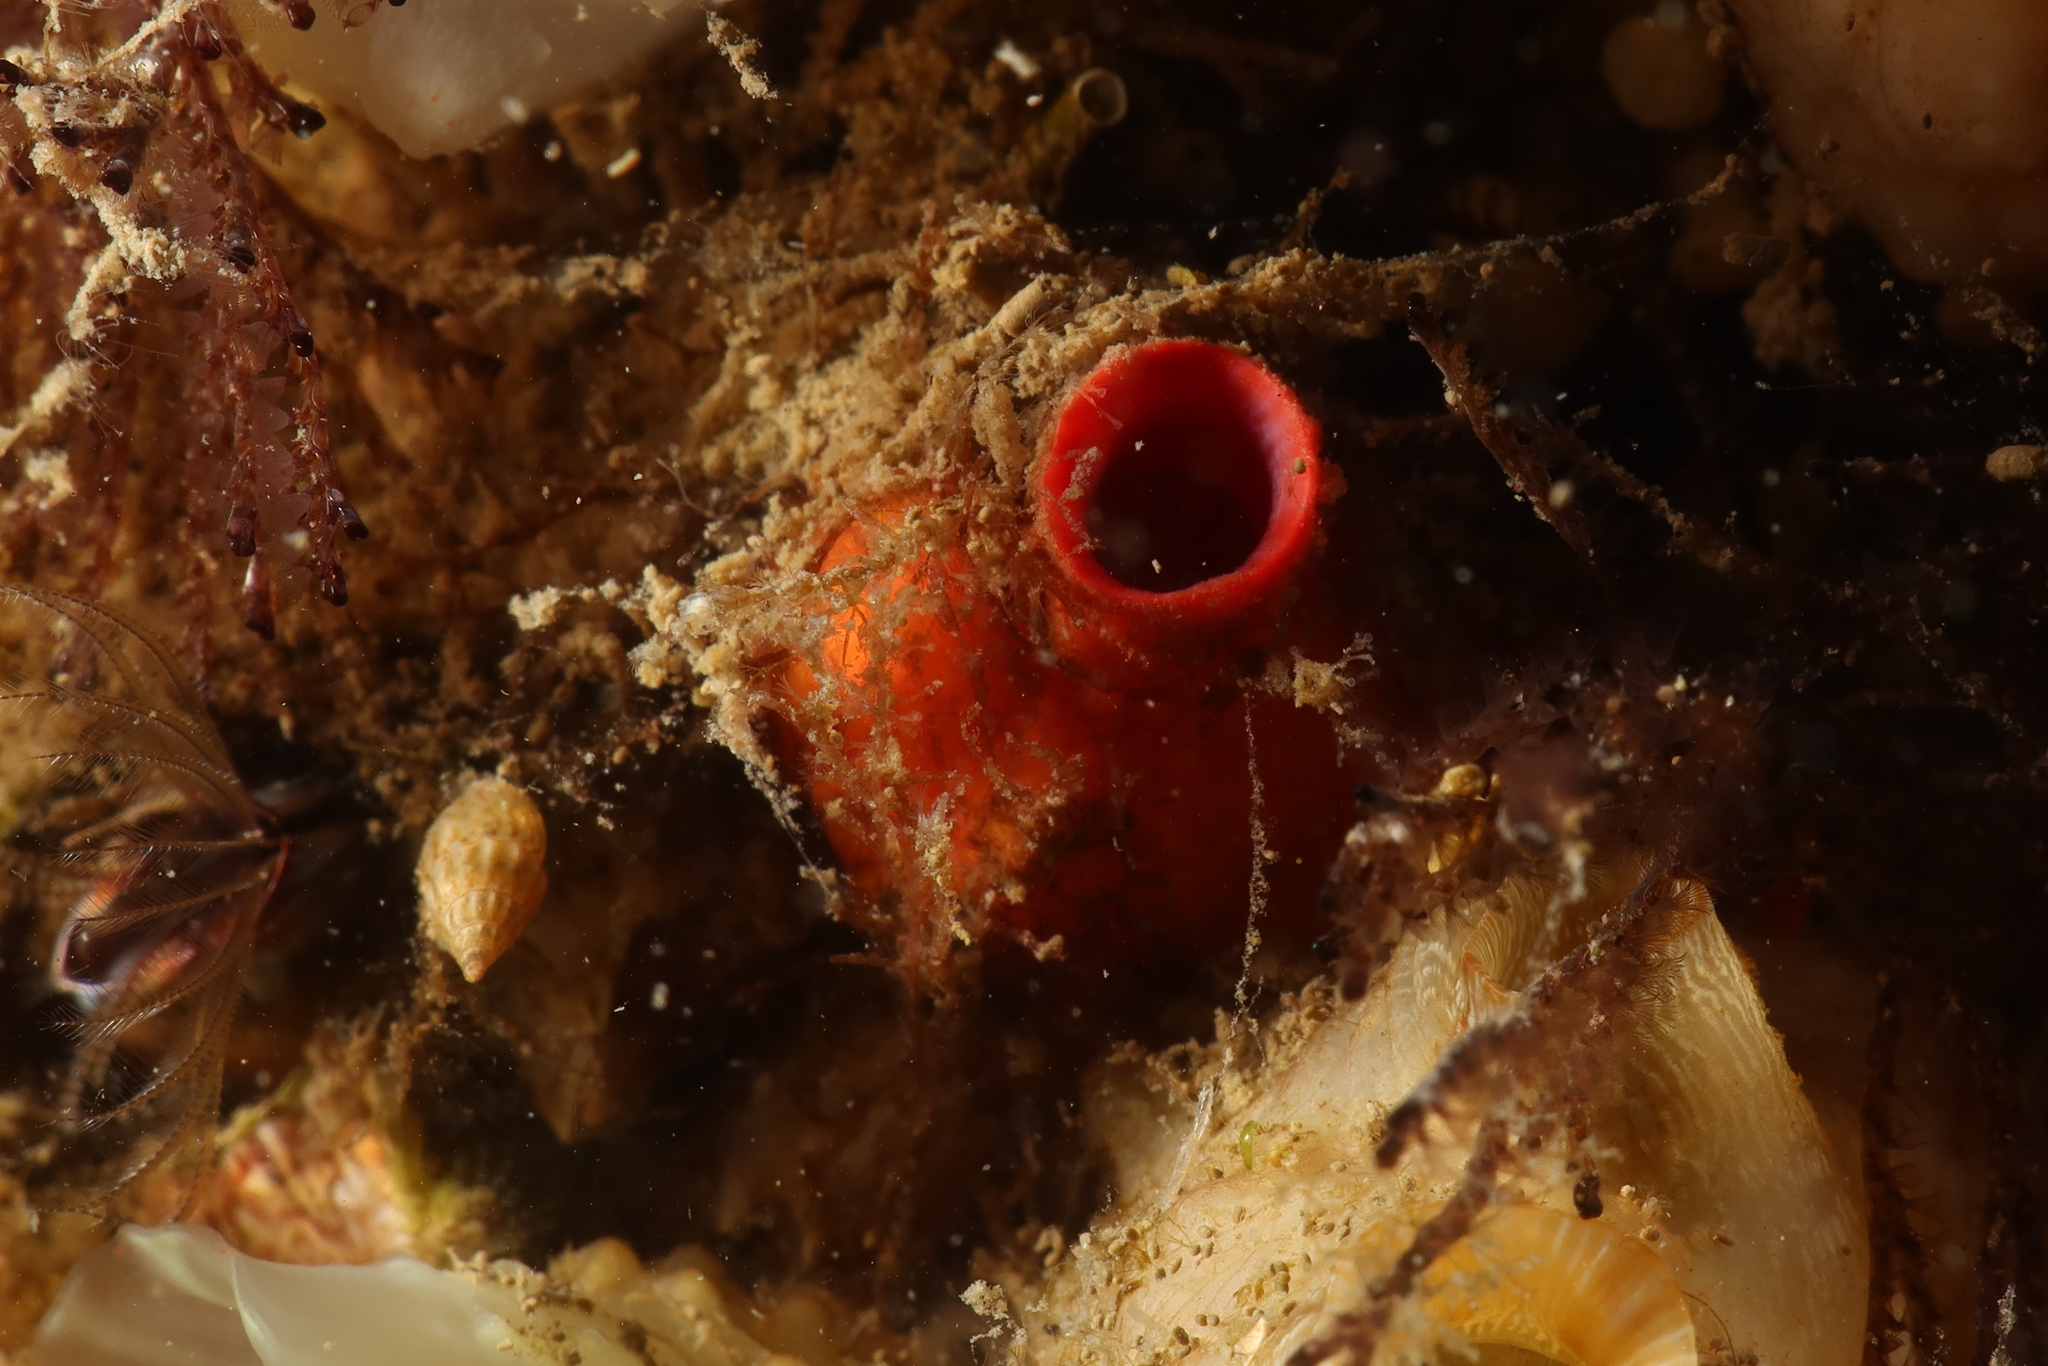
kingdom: Animalia
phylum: Chordata
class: Ascidiacea
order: Stolidobranchia
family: Pyuridae
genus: Pyura
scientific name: Pyura dura
